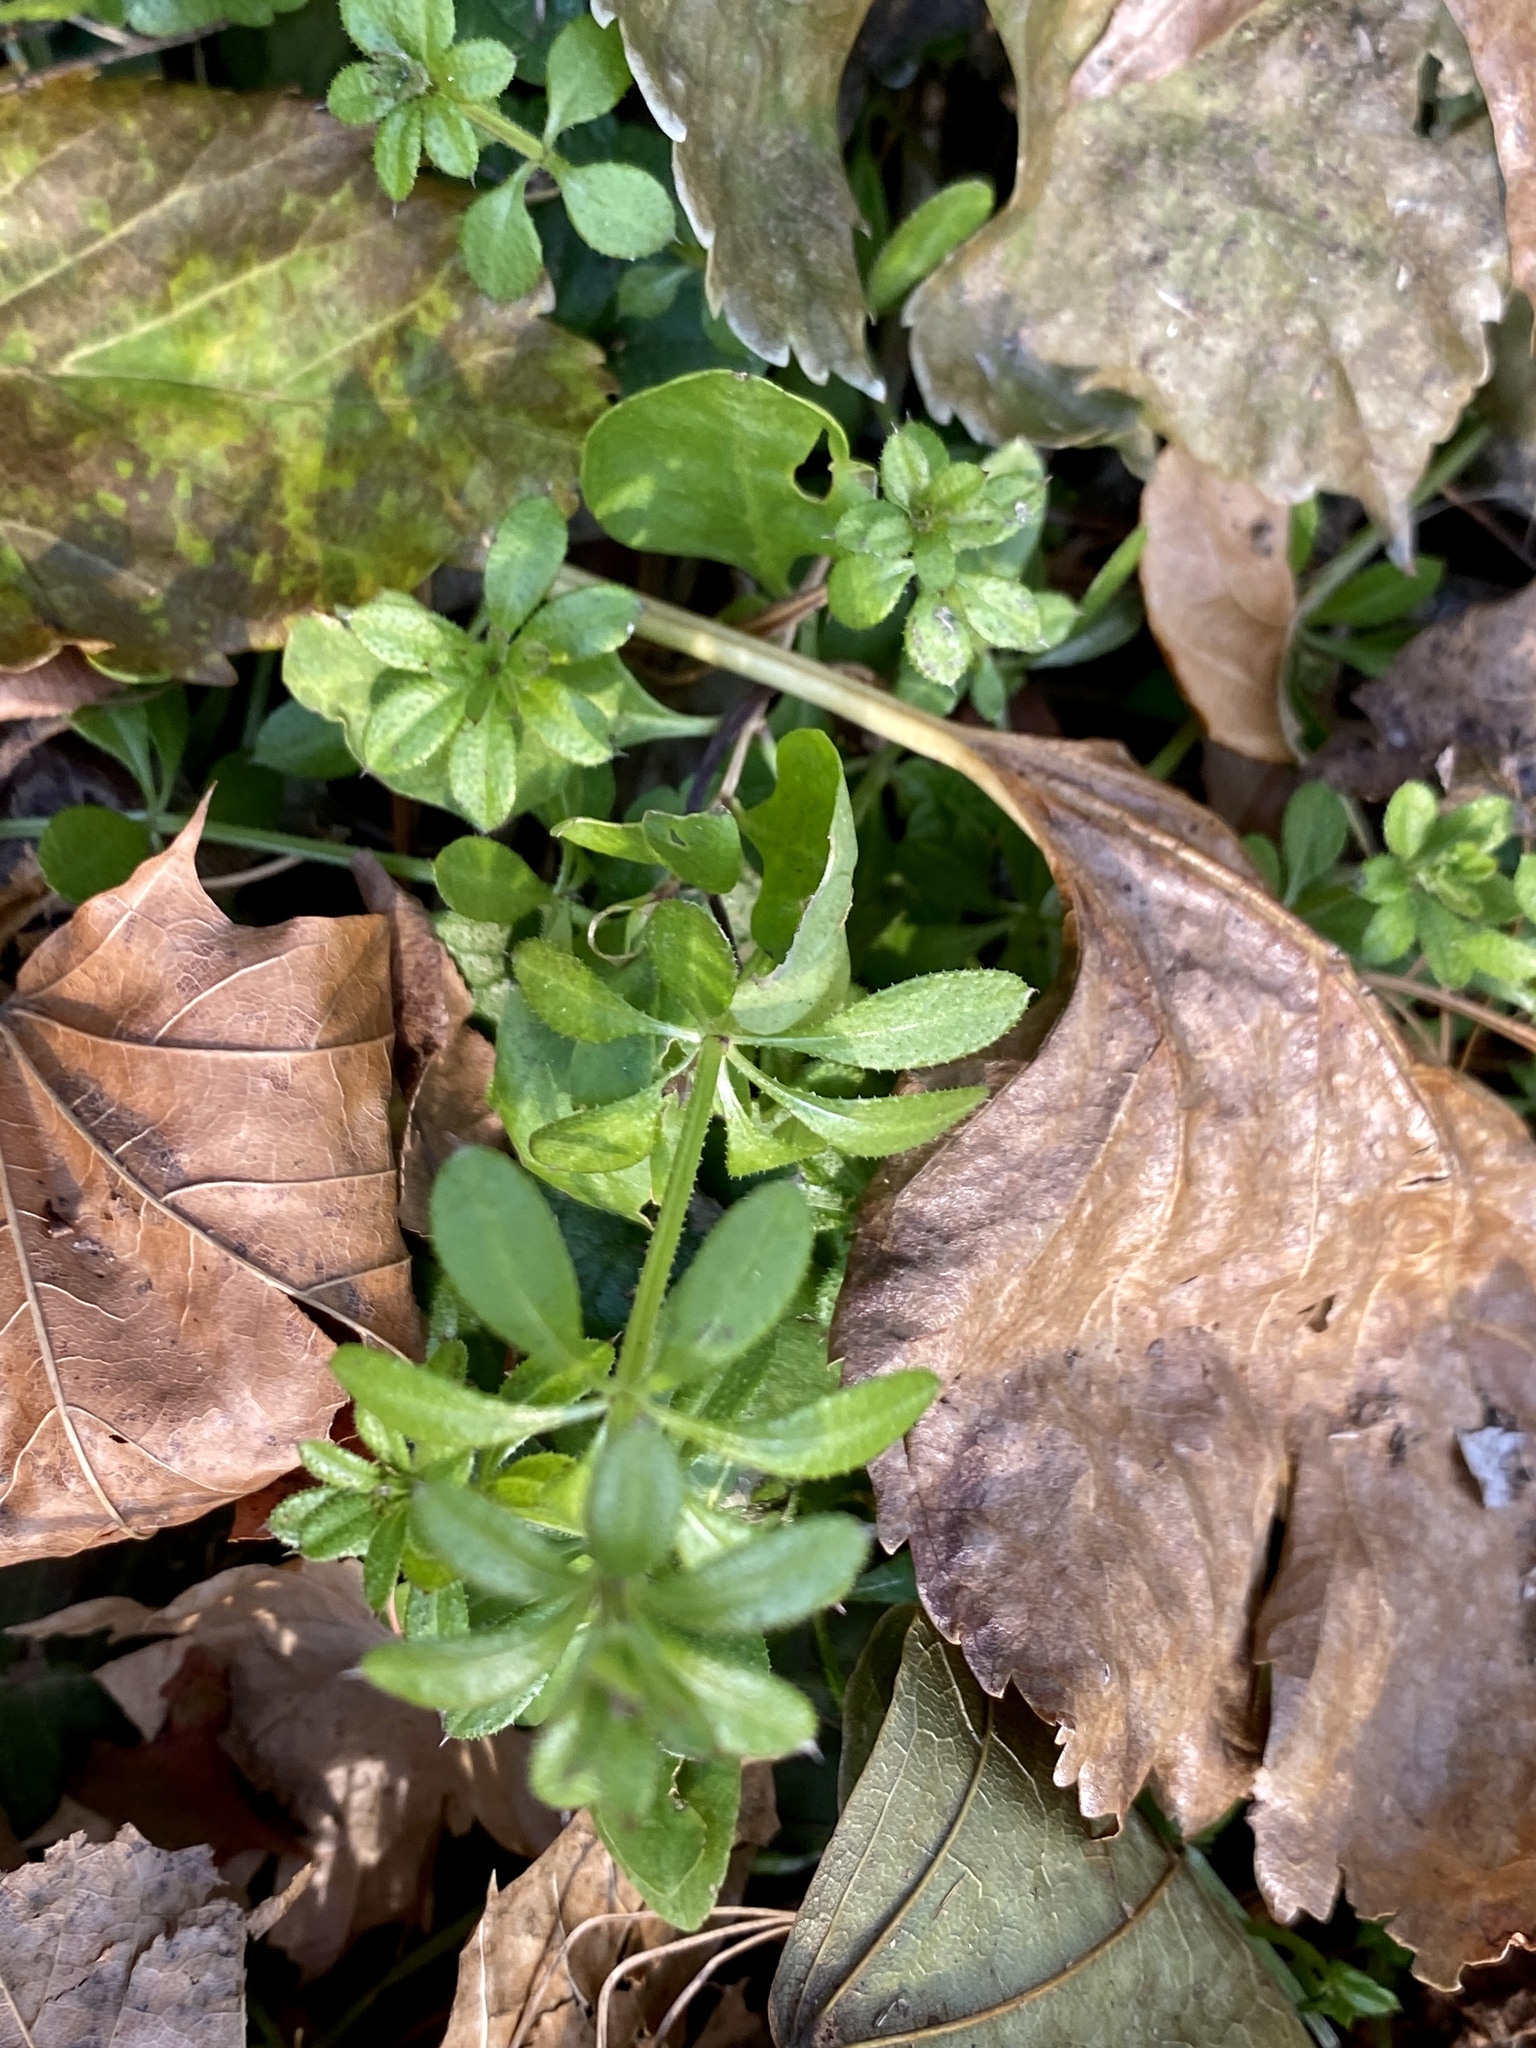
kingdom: Plantae
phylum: Tracheophyta
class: Magnoliopsida
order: Gentianales
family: Rubiaceae
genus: Galium
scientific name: Galium aparine
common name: Cleavers
